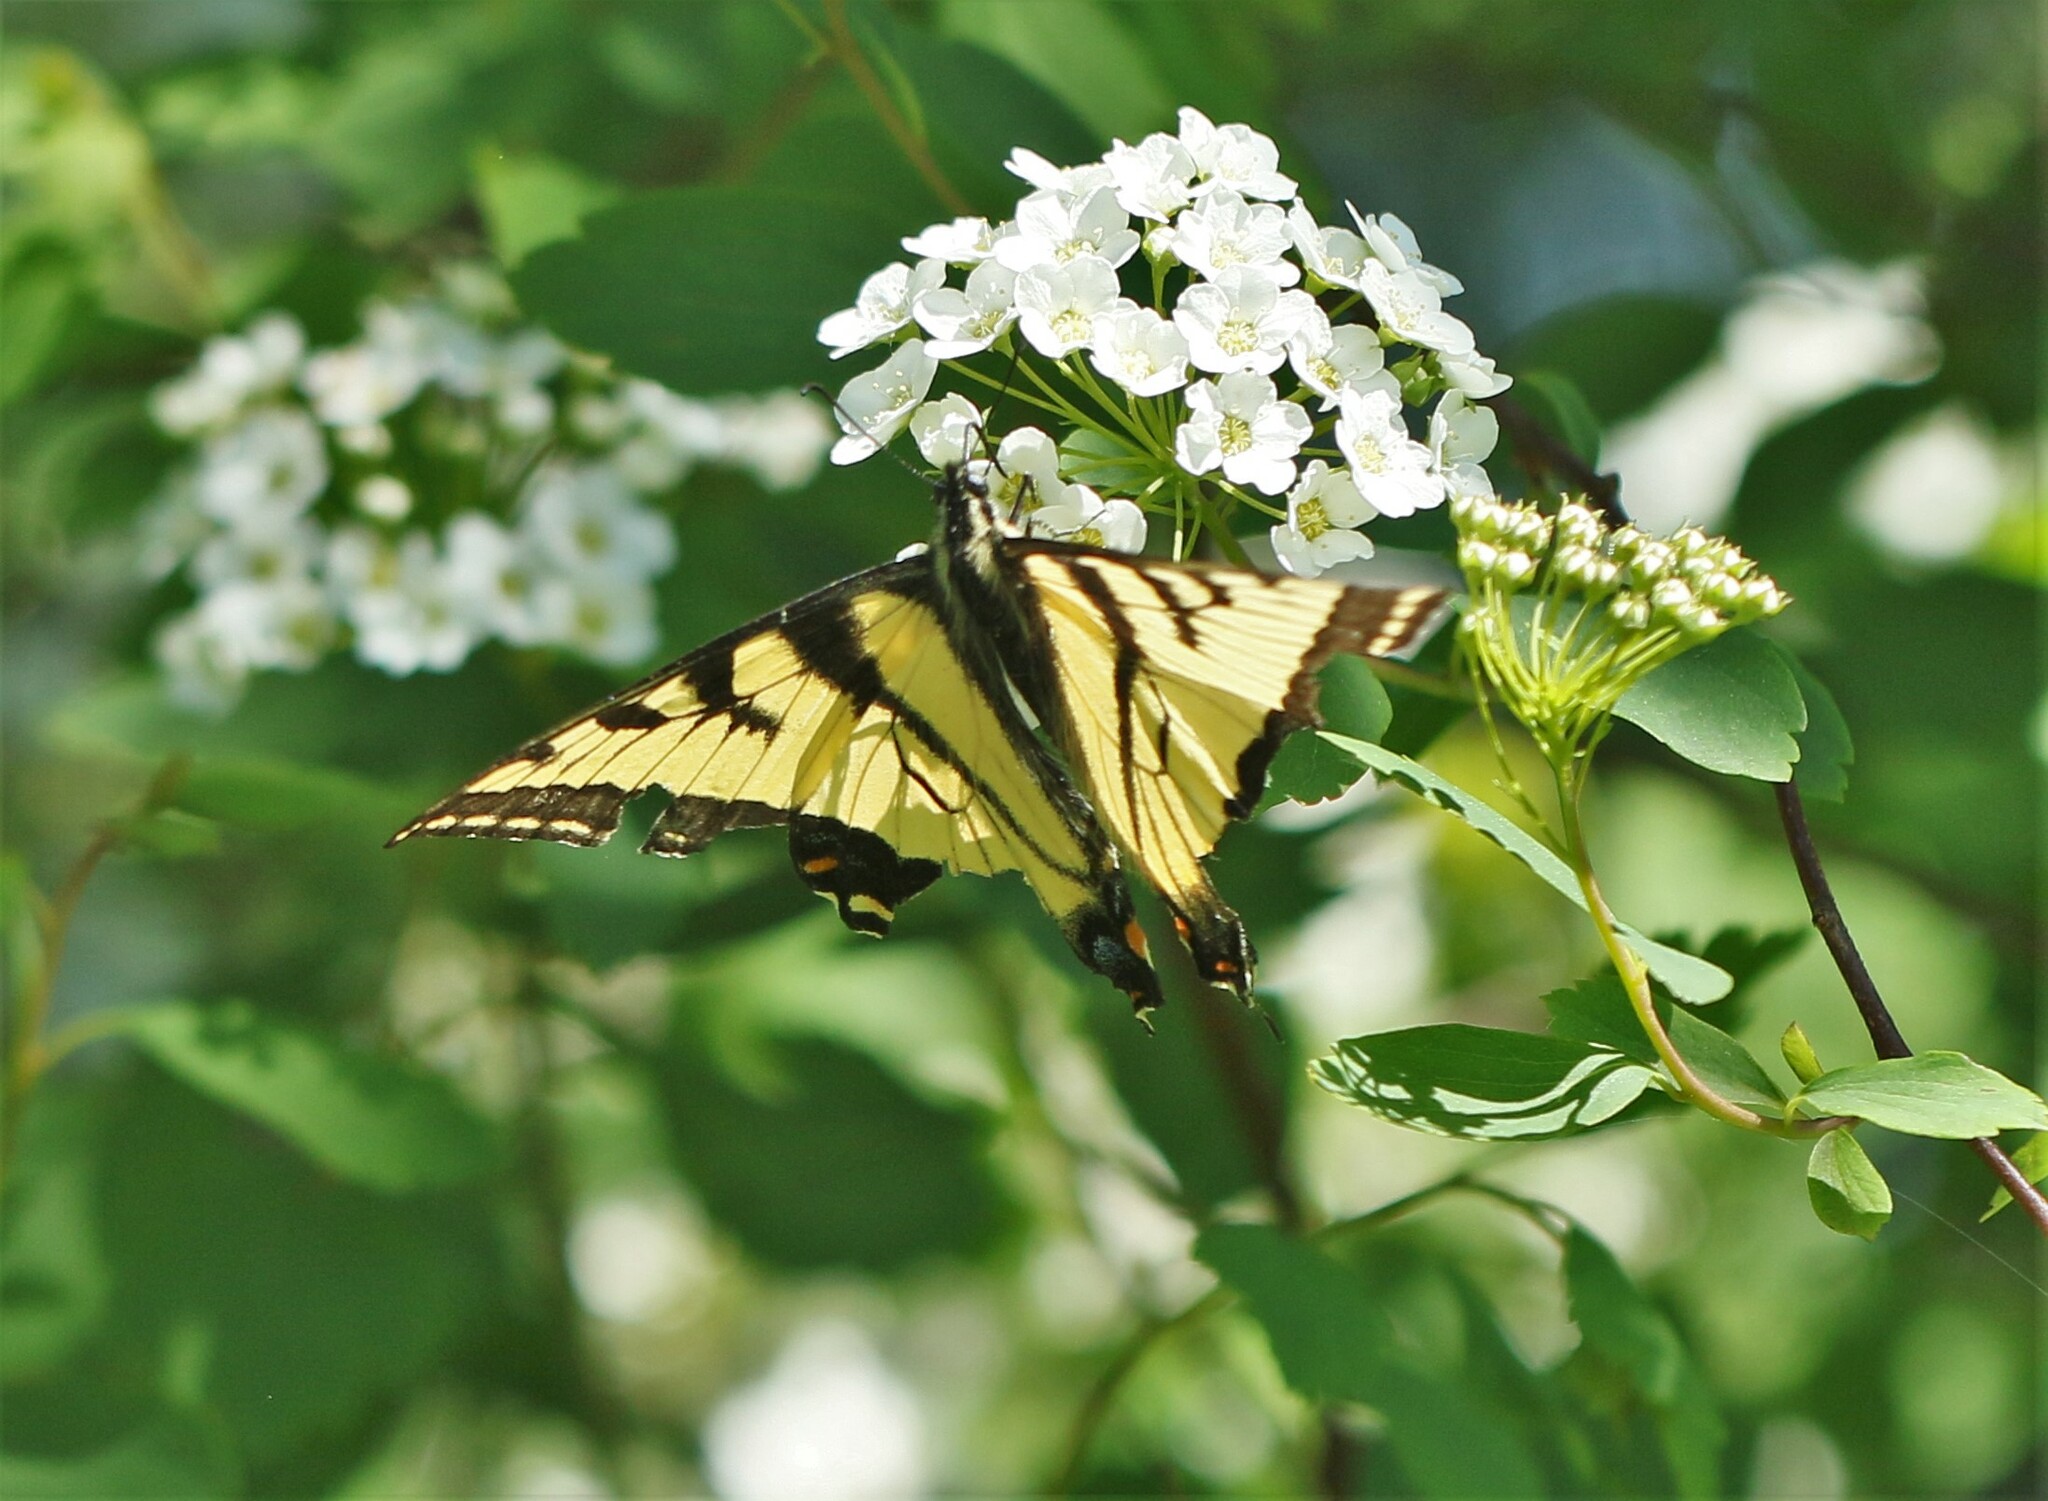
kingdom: Animalia
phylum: Arthropoda
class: Insecta
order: Lepidoptera
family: Papilionidae
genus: Papilio
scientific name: Papilio canadensis
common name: Canadian tiger swallowtail
